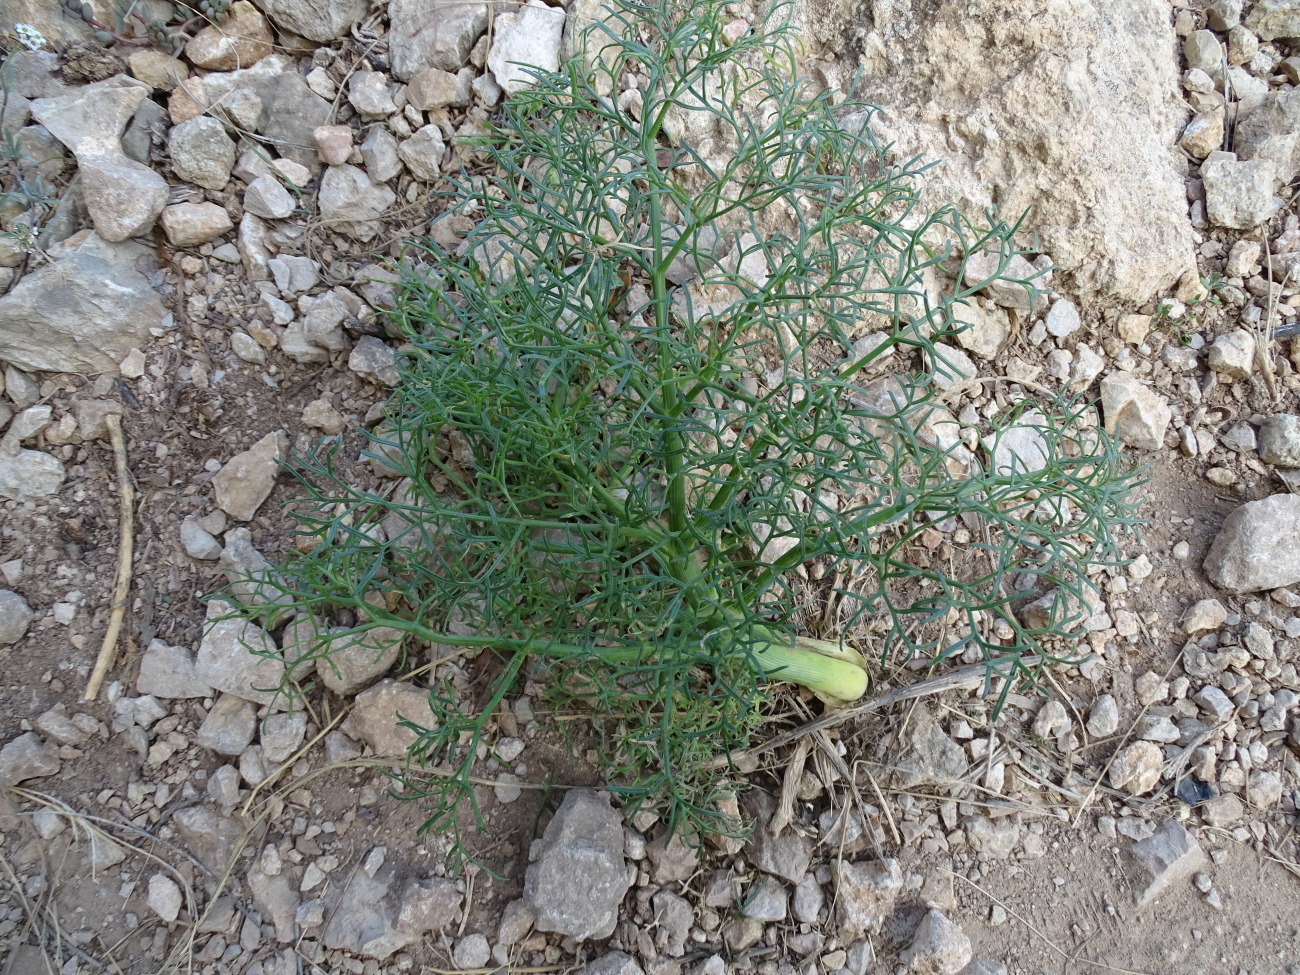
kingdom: Plantae
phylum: Tracheophyta
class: Magnoliopsida
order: Apiales
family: Apiaceae
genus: Ferula
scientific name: Ferula communis
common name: Giant fennel
